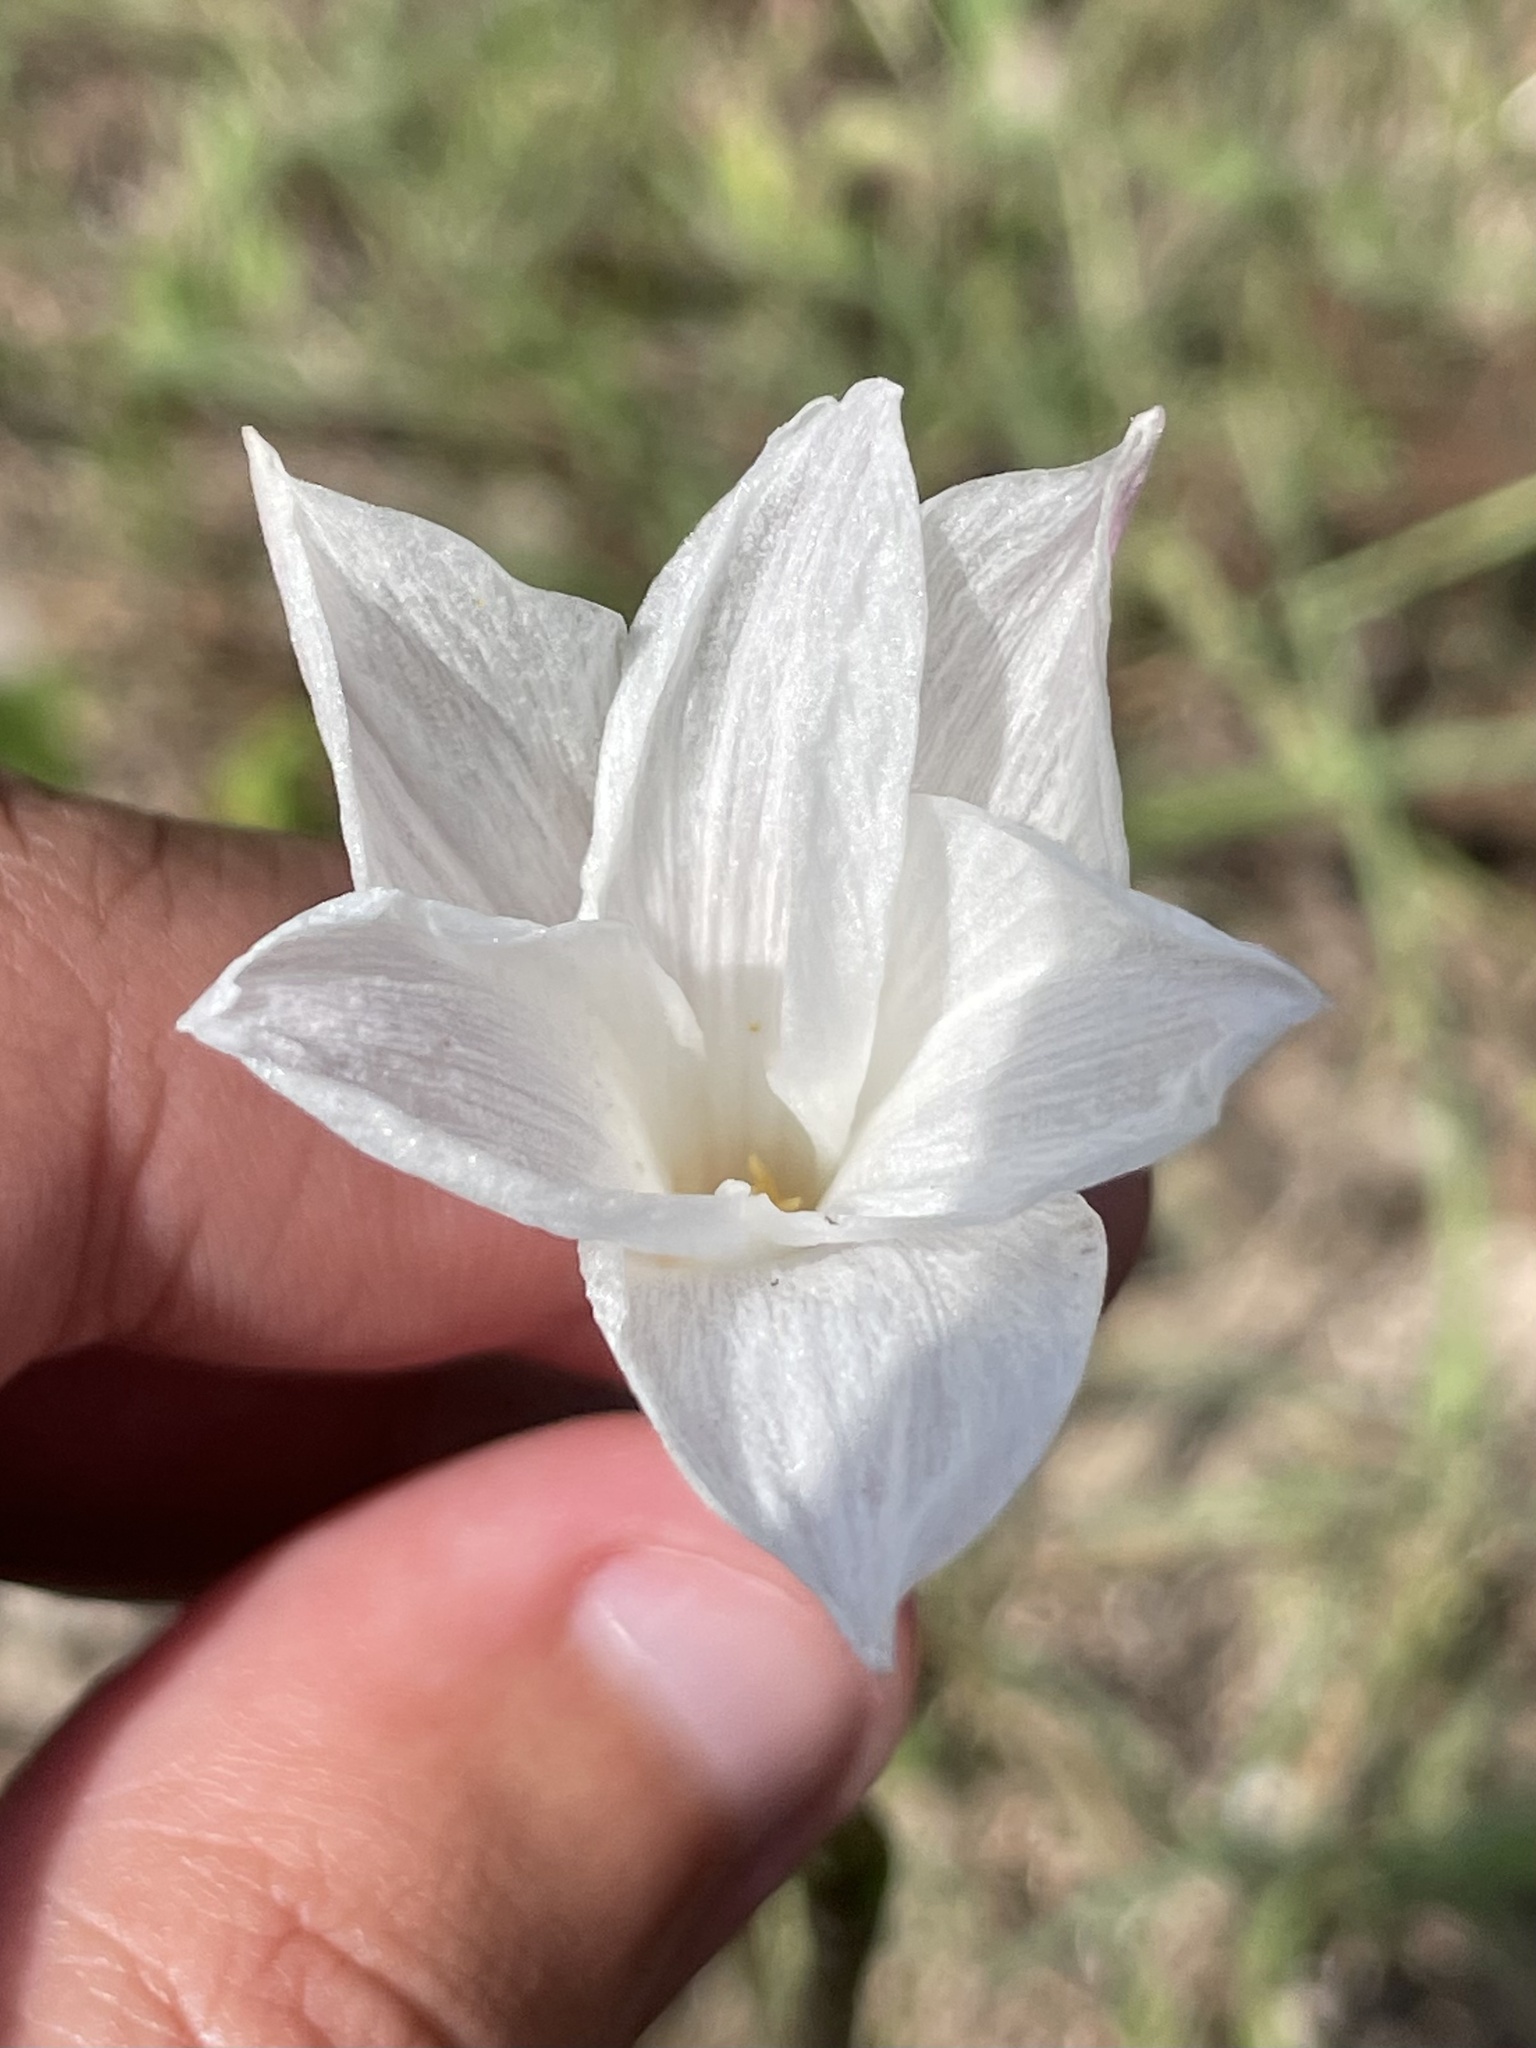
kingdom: Plantae
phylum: Tracheophyta
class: Liliopsida
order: Asparagales
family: Amaryllidaceae
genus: Zephyranthes
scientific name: Zephyranthes drummondii
